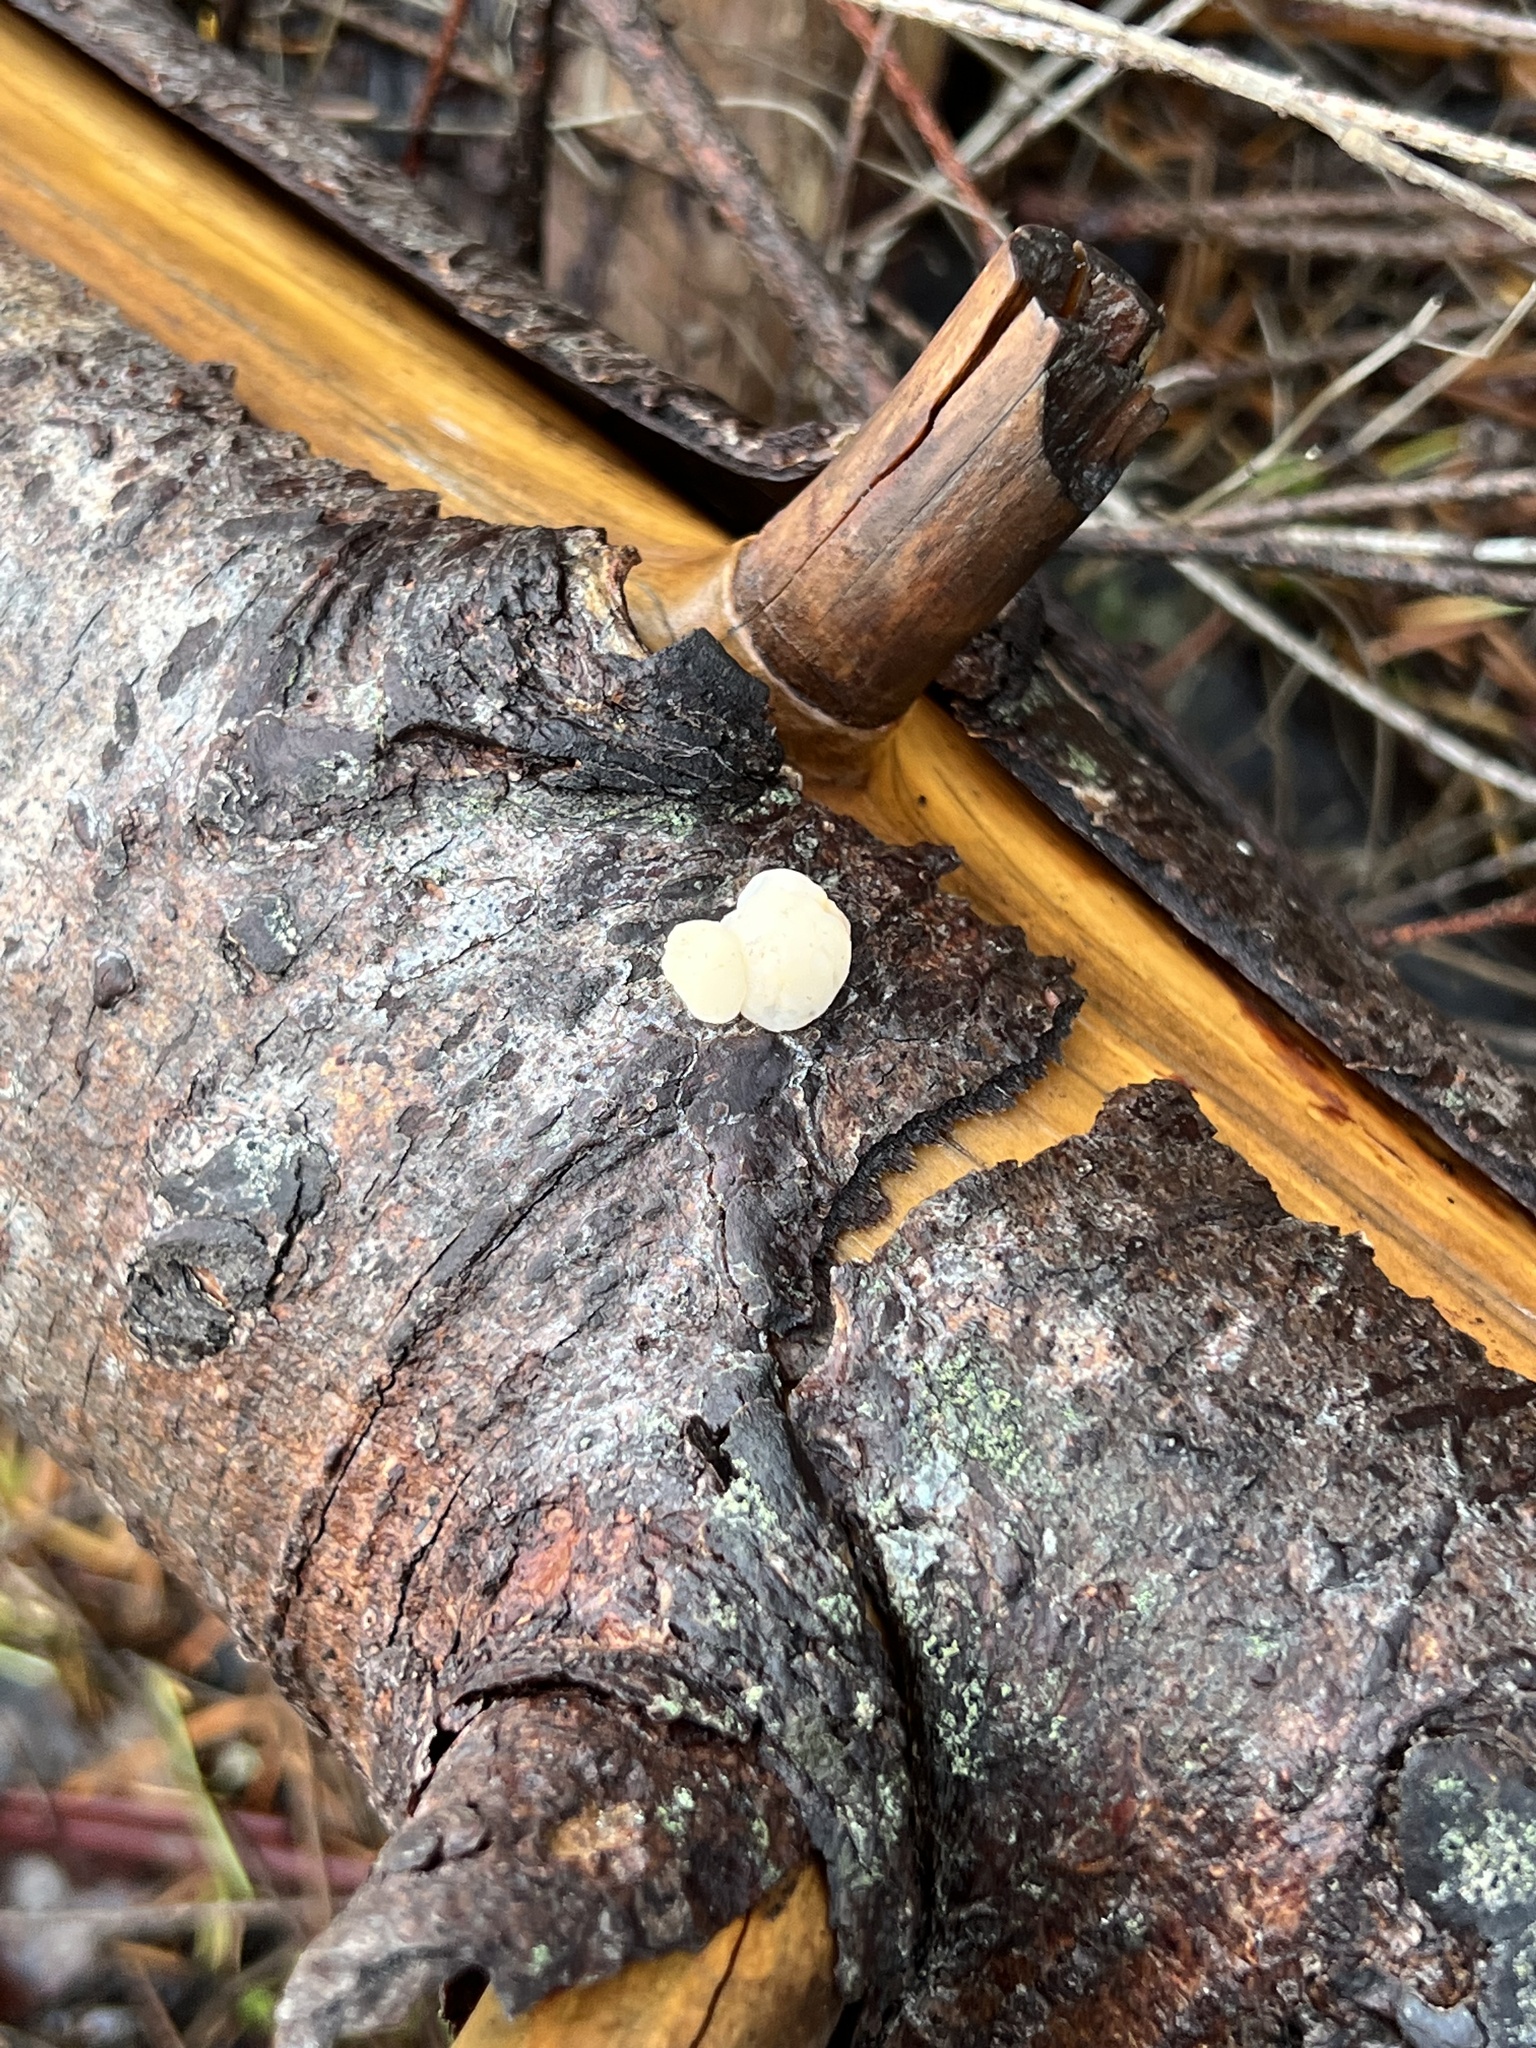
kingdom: Fungi
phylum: Basidiomycota
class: Tremellomycetes
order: Tremellales
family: Naemateliaceae
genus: Naematelia
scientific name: Naematelia encephala
